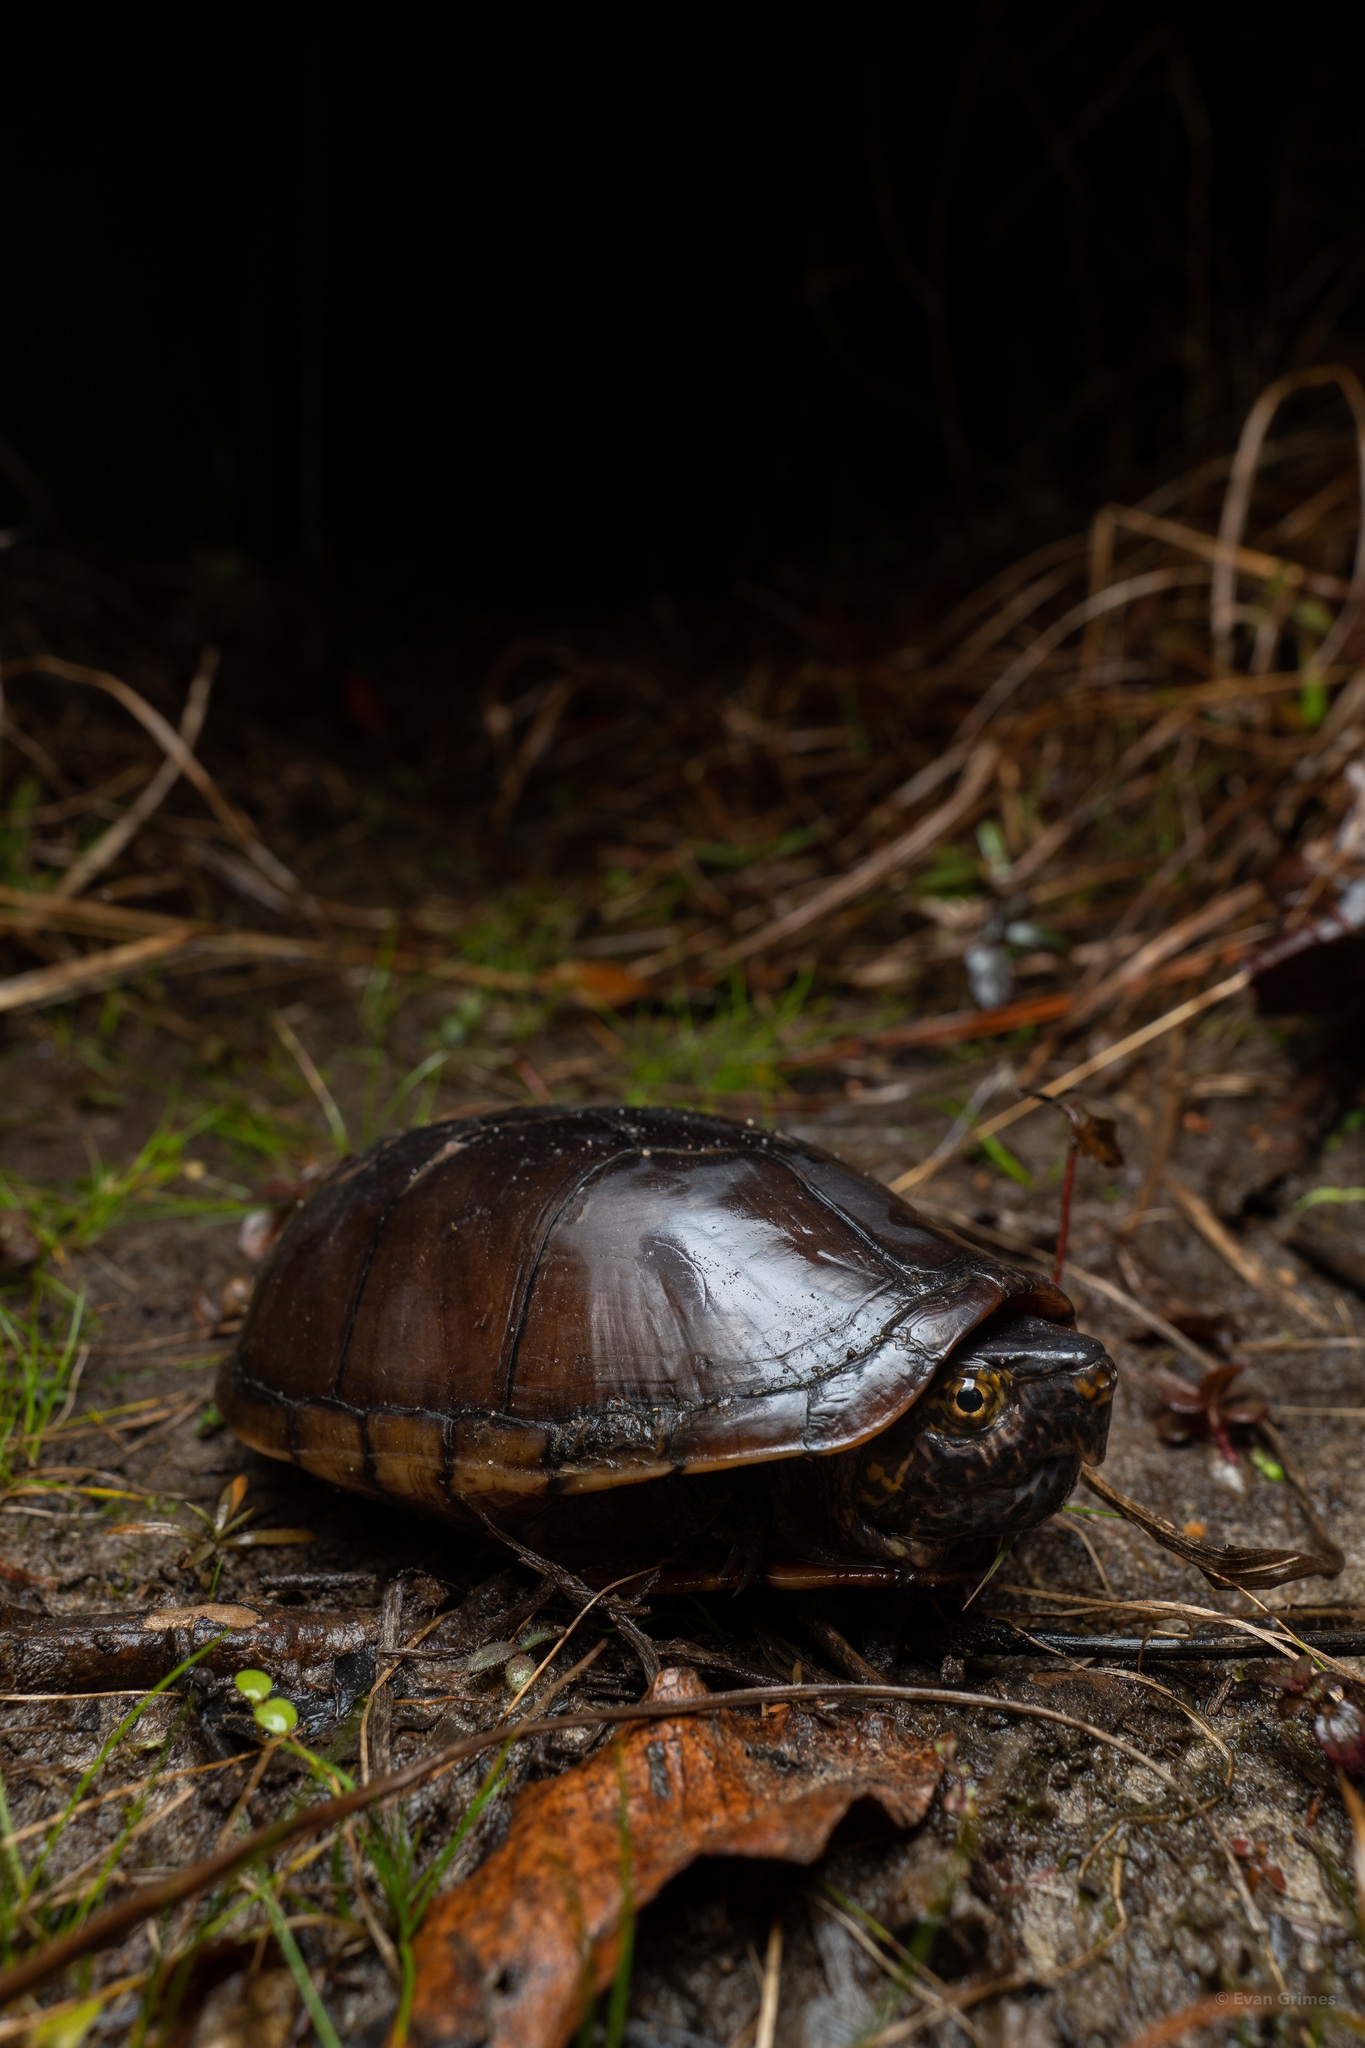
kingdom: Animalia
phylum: Chordata
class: Testudines
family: Kinosternidae
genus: Kinosternon
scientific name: Kinosternon subrubrum
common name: Eastern mud turtle
